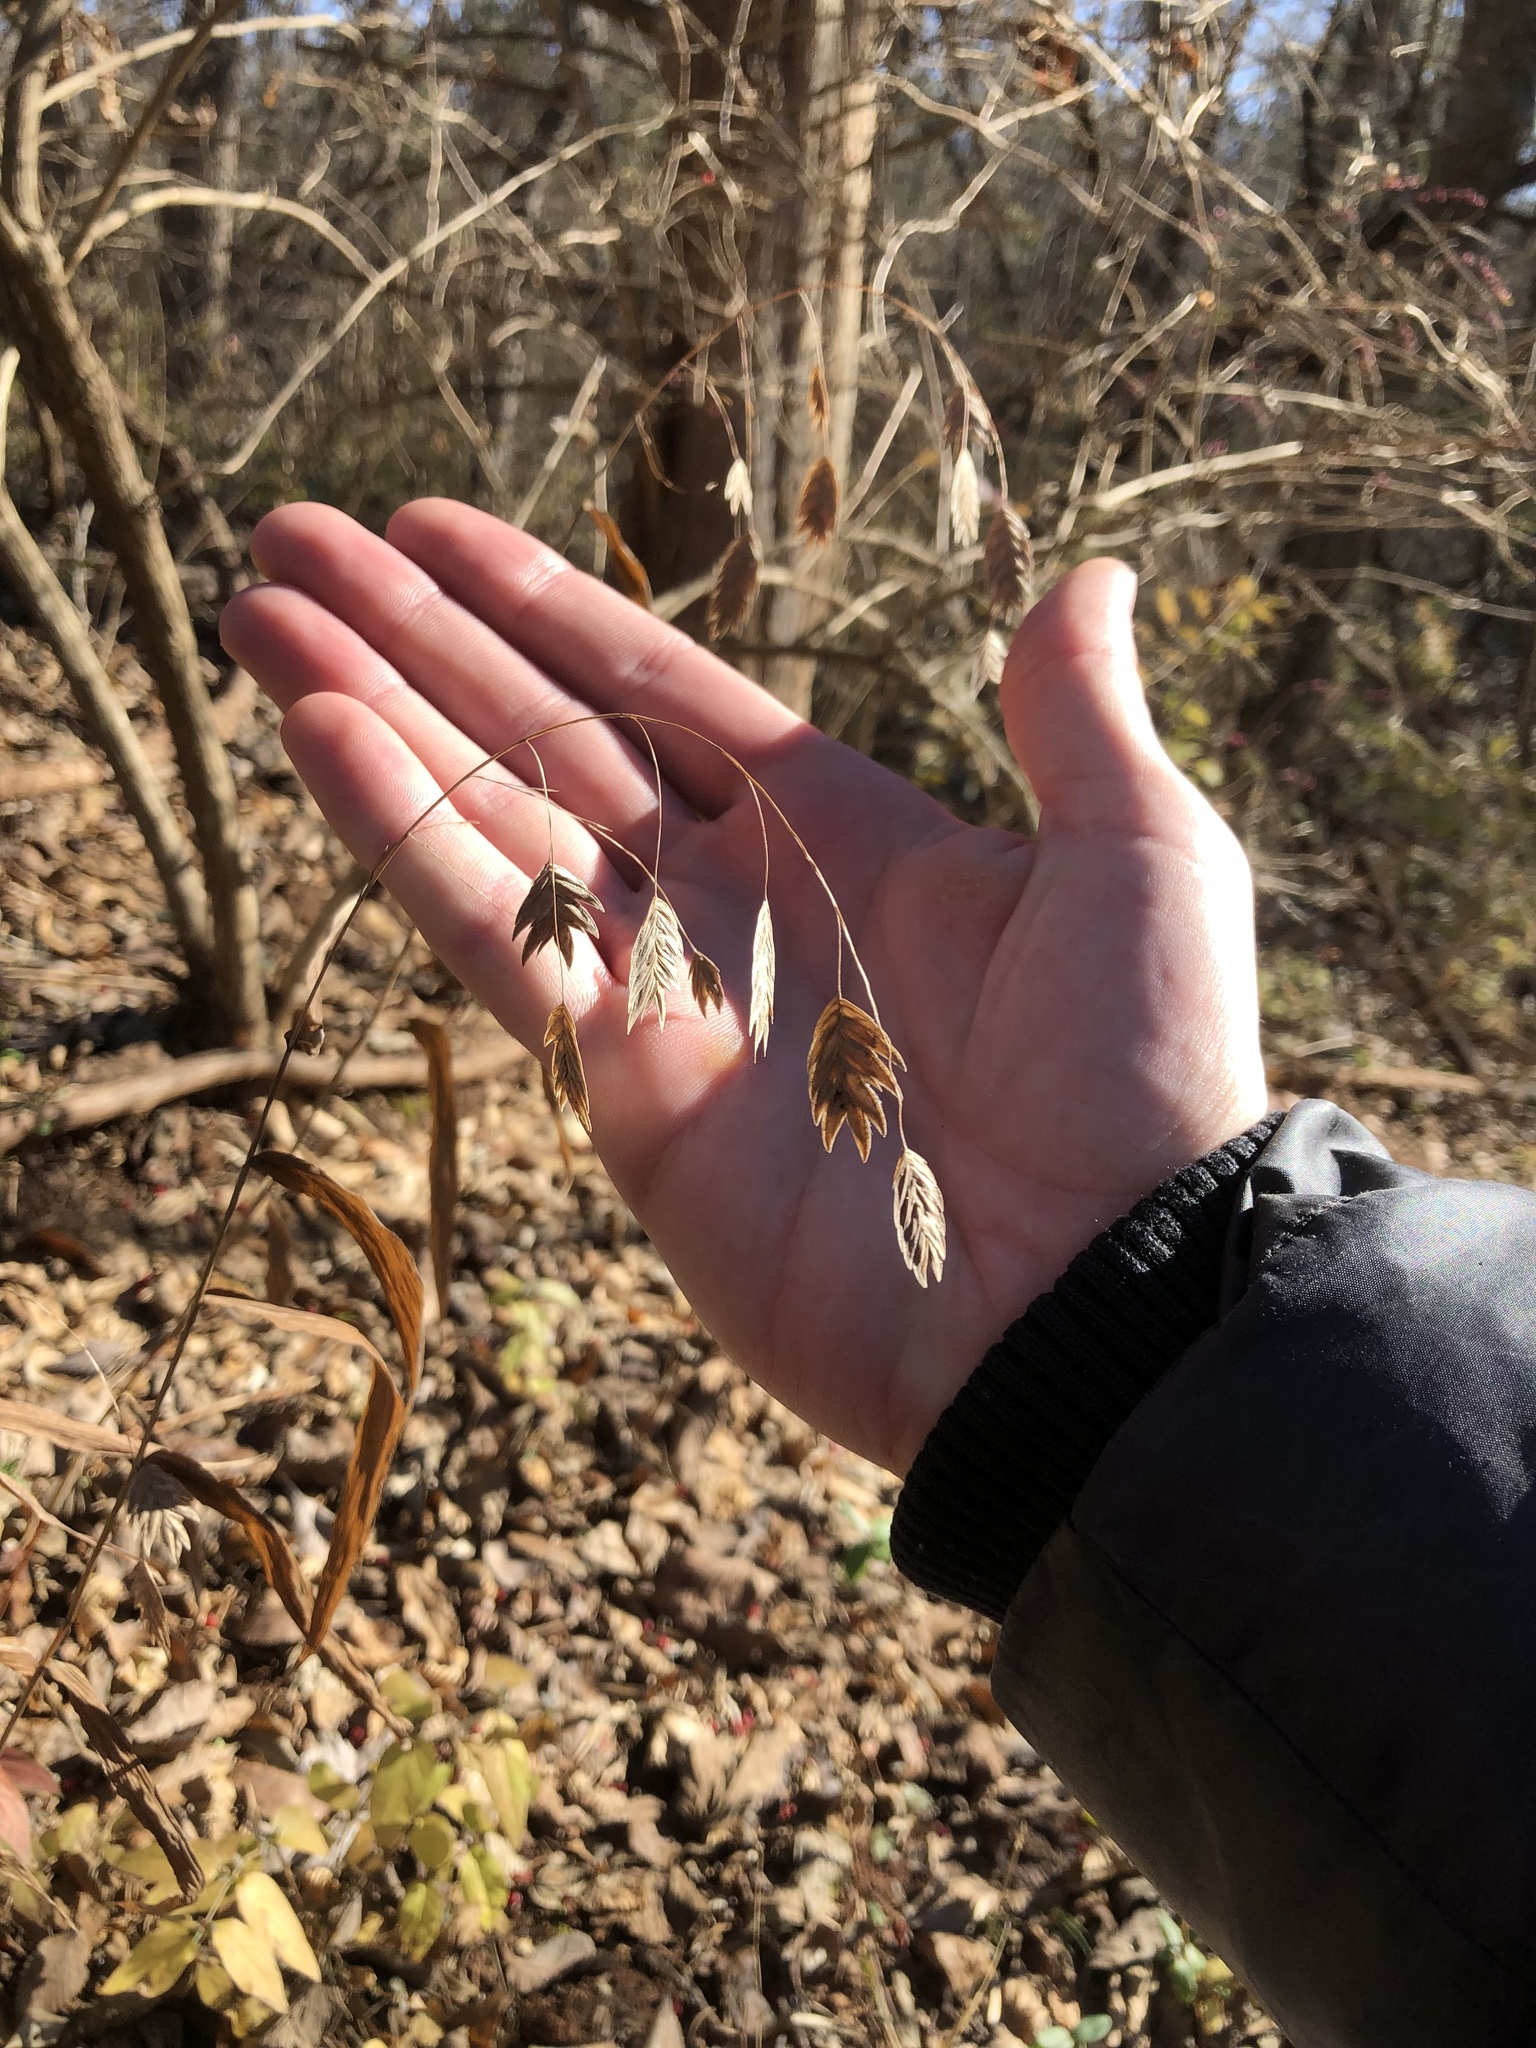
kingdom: Plantae
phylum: Tracheophyta
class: Liliopsida
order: Poales
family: Poaceae
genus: Chasmanthium
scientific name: Chasmanthium latifolium
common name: Broad-leaved chasmanthium
